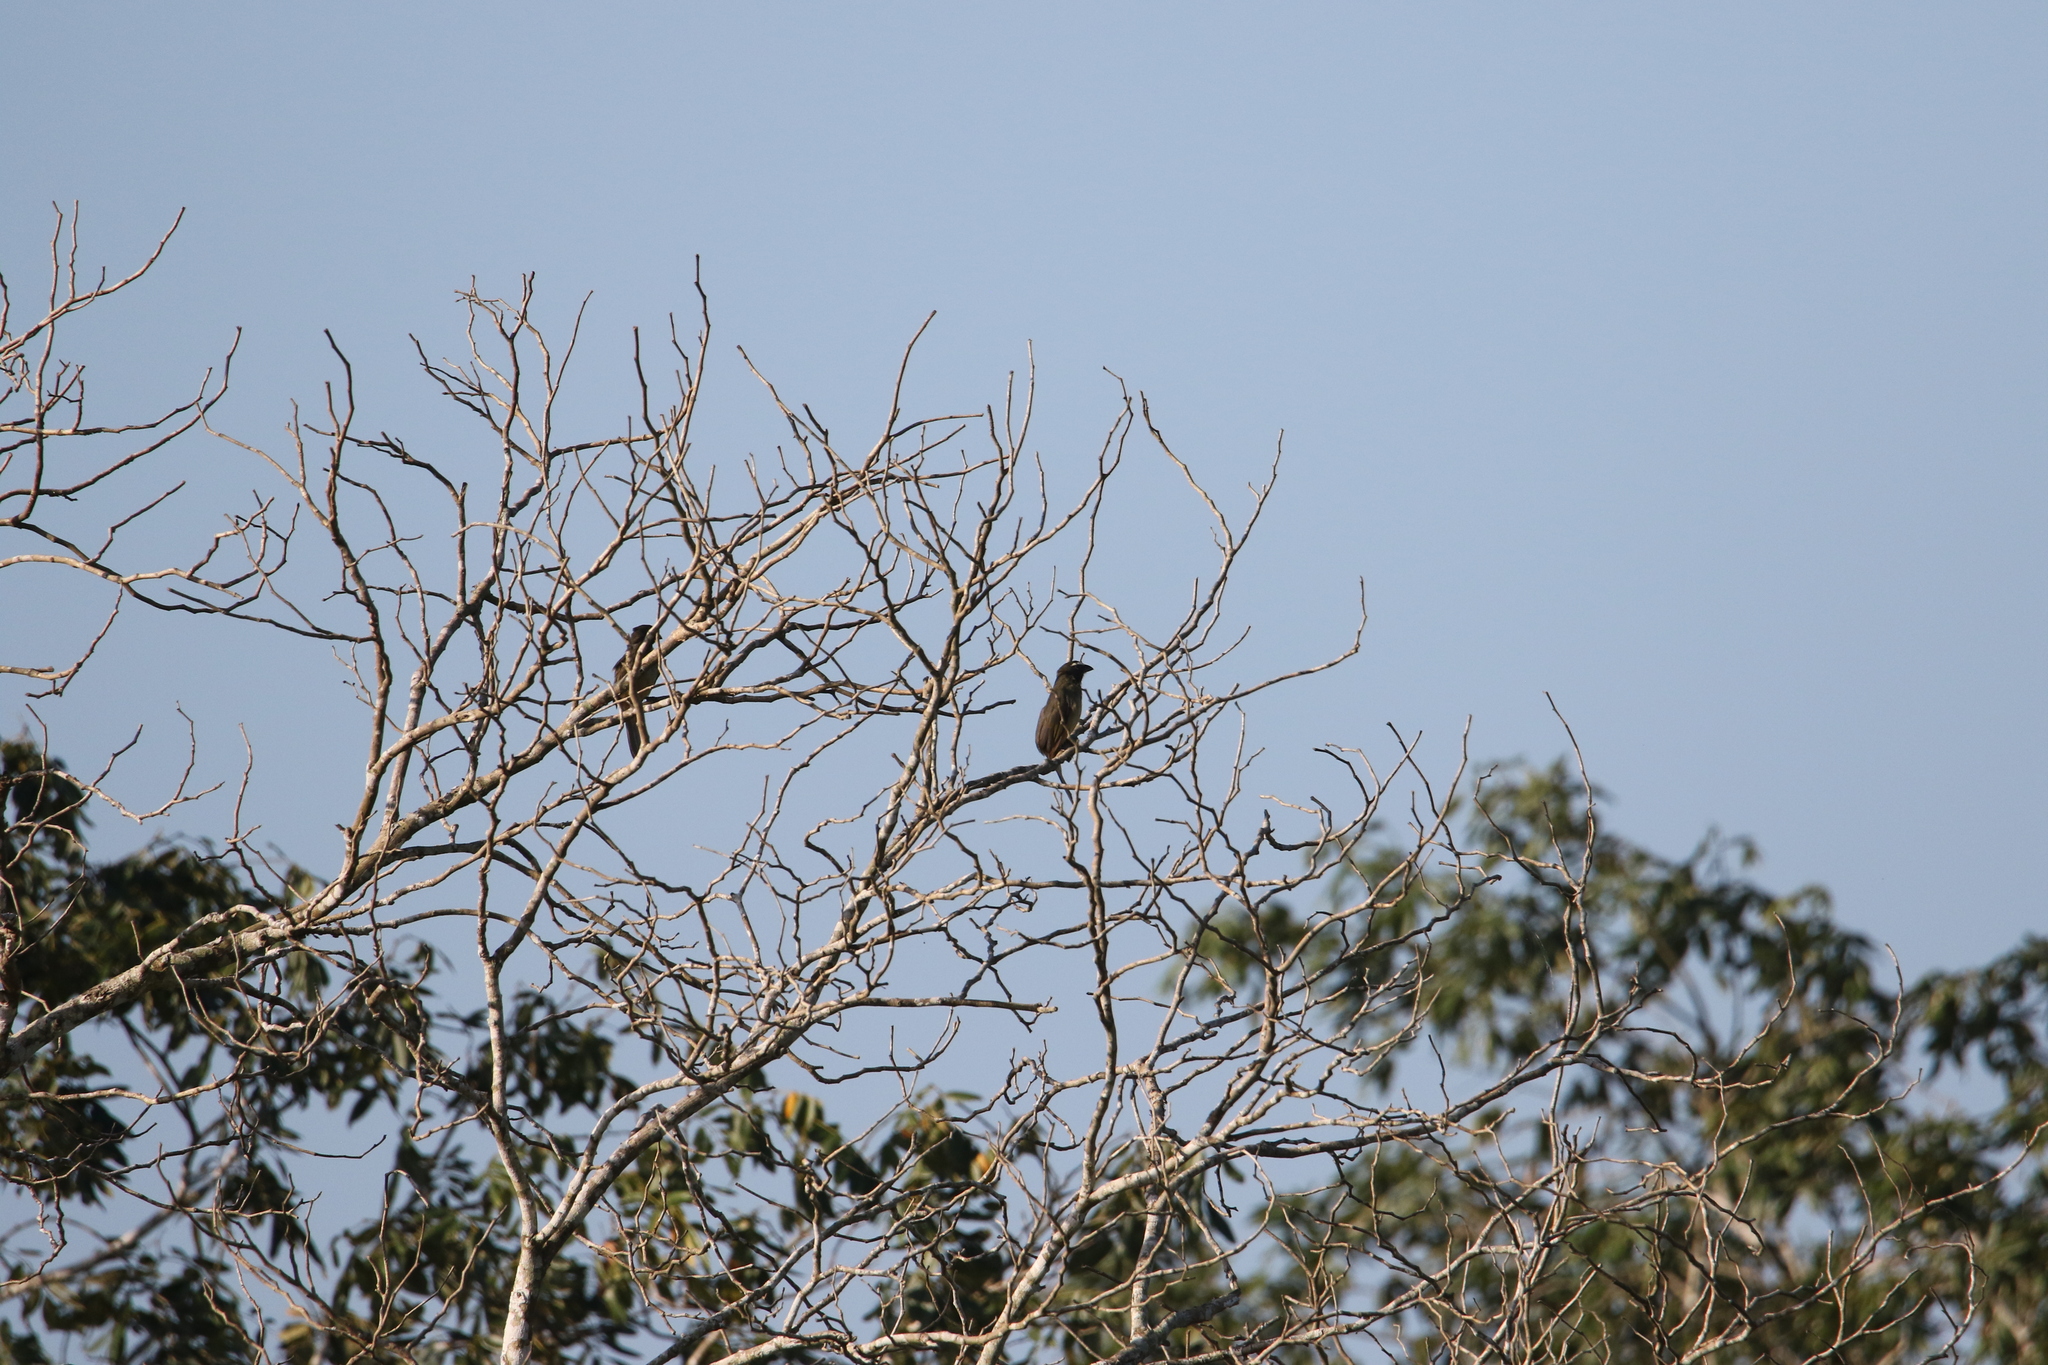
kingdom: Animalia
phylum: Chordata
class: Aves
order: Passeriformes
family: Thraupidae
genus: Saltator
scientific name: Saltator atriceps
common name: Black-headed saltator
